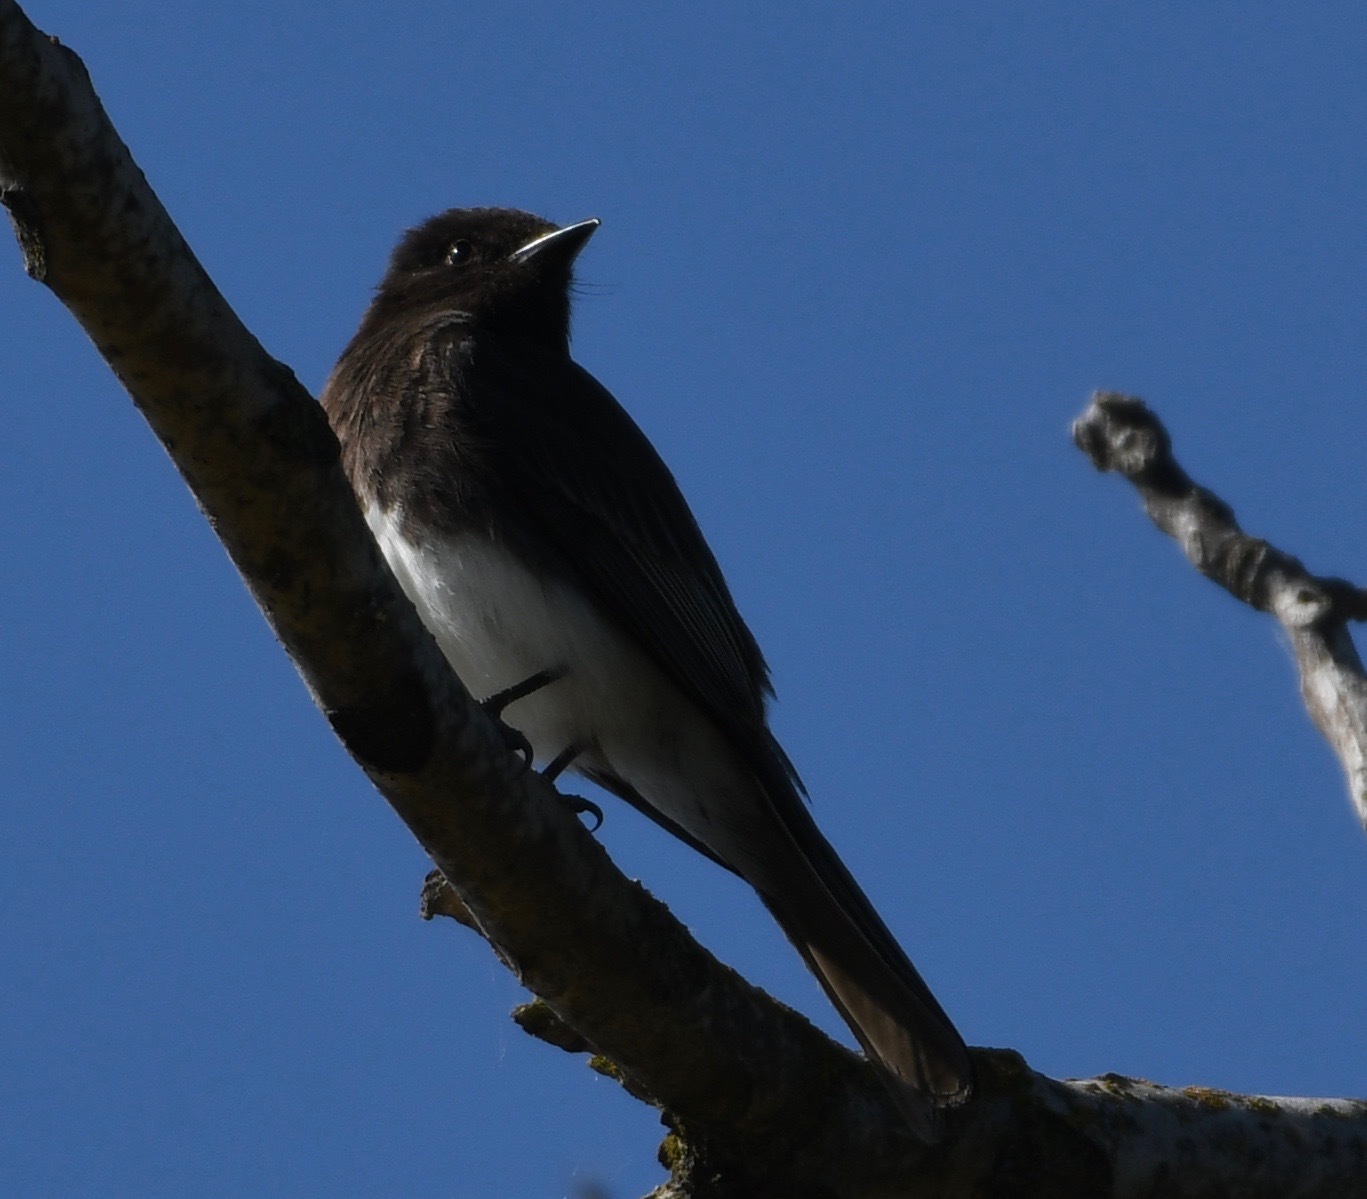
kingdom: Animalia
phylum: Chordata
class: Aves
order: Passeriformes
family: Tyrannidae
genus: Sayornis
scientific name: Sayornis nigricans
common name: Black phoebe
